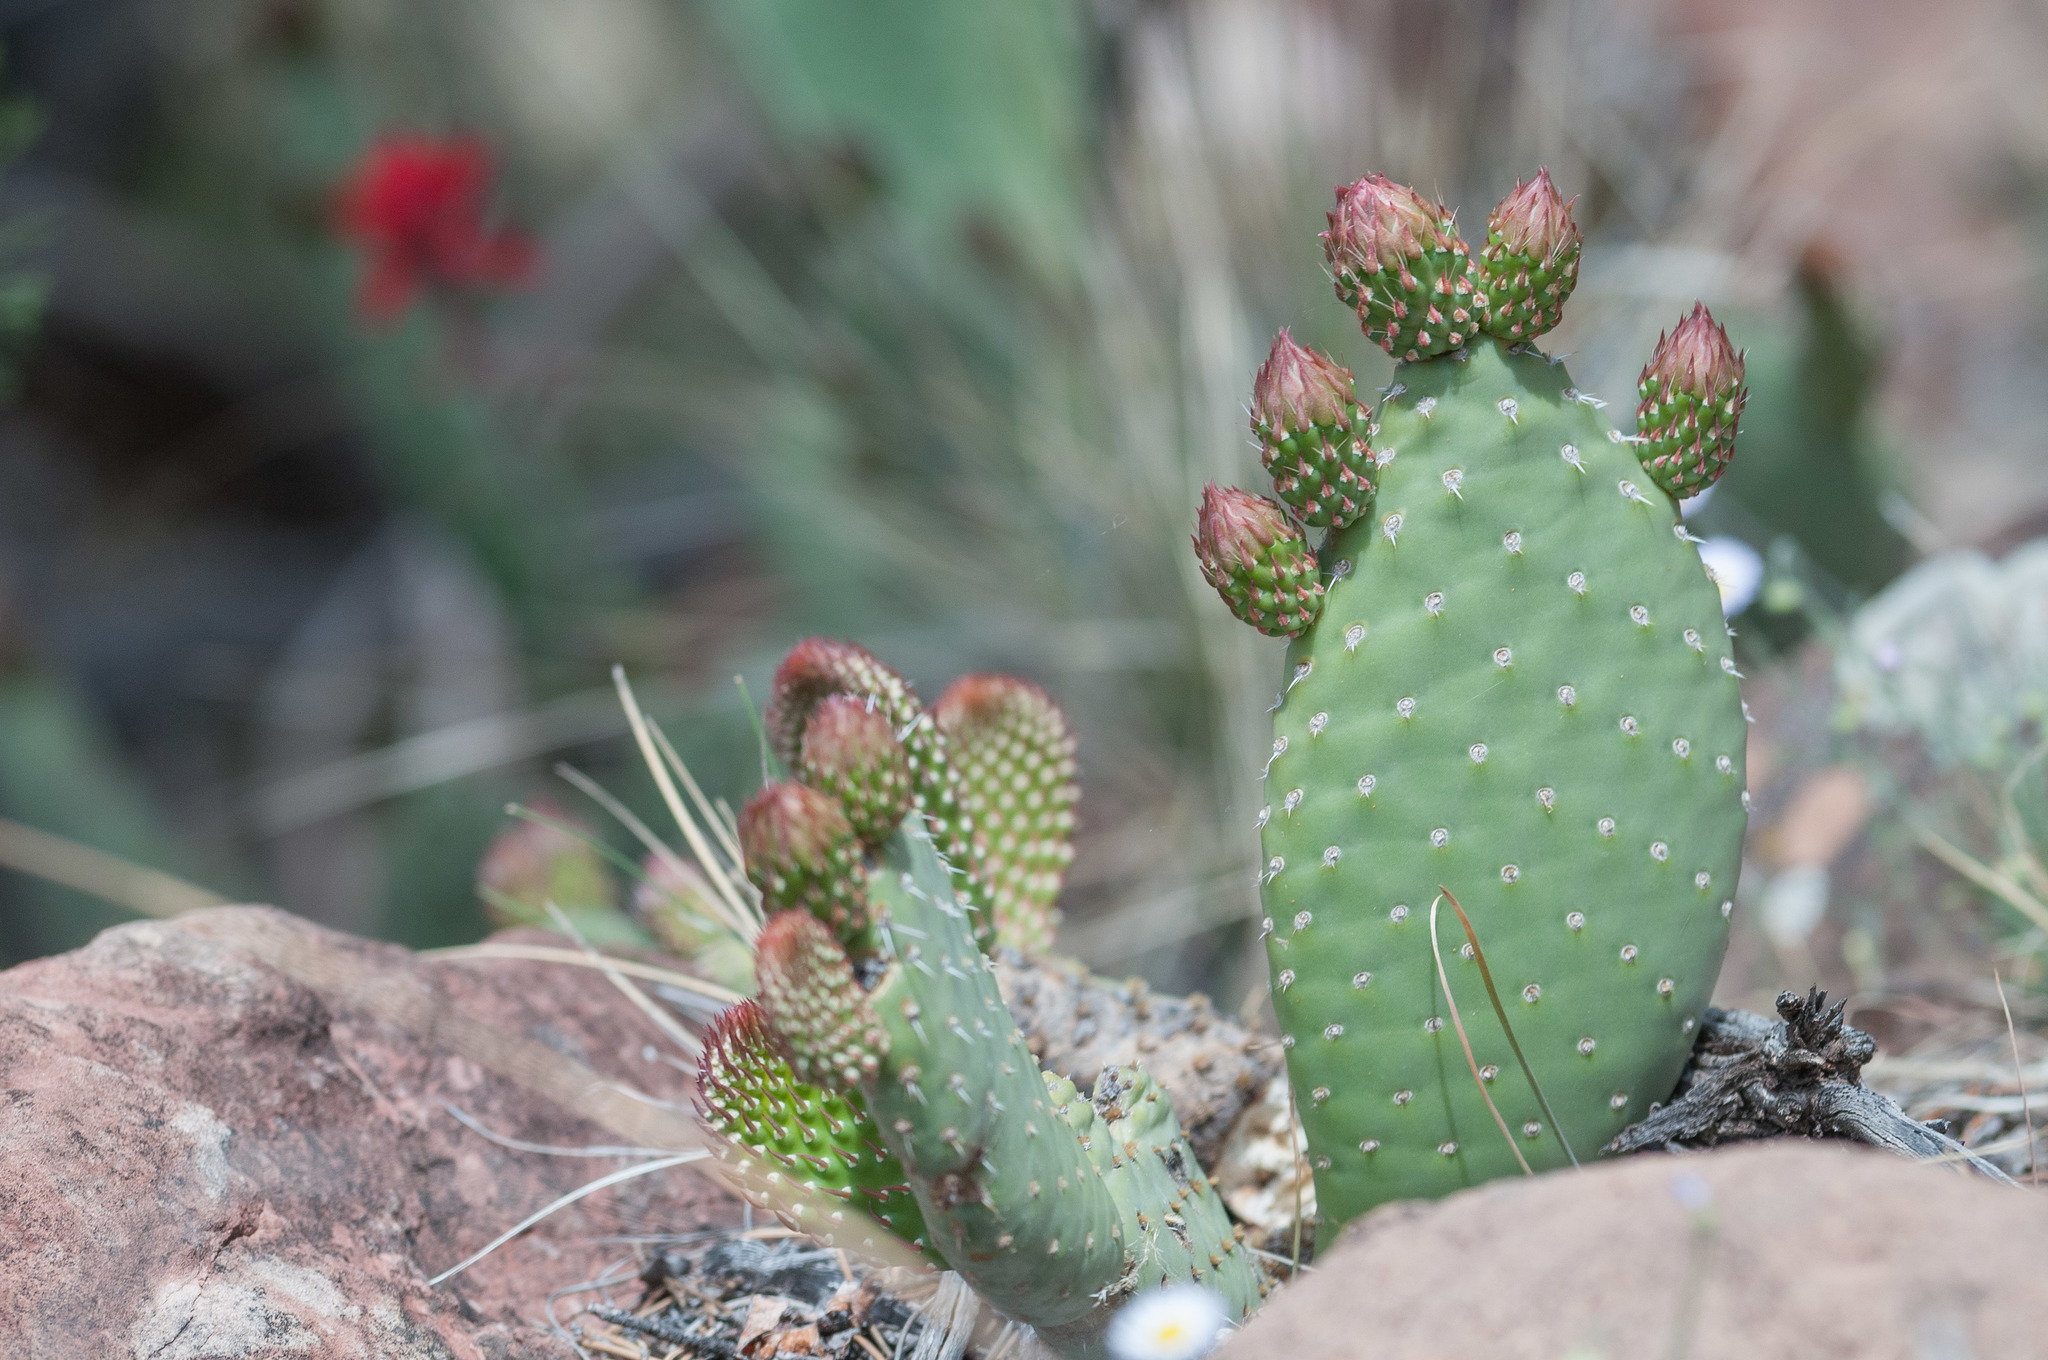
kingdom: Plantae
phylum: Tracheophyta
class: Magnoliopsida
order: Caryophyllales
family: Cactaceae
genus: Opuntia
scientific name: Opuntia aurea
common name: Golden prickly-pear
